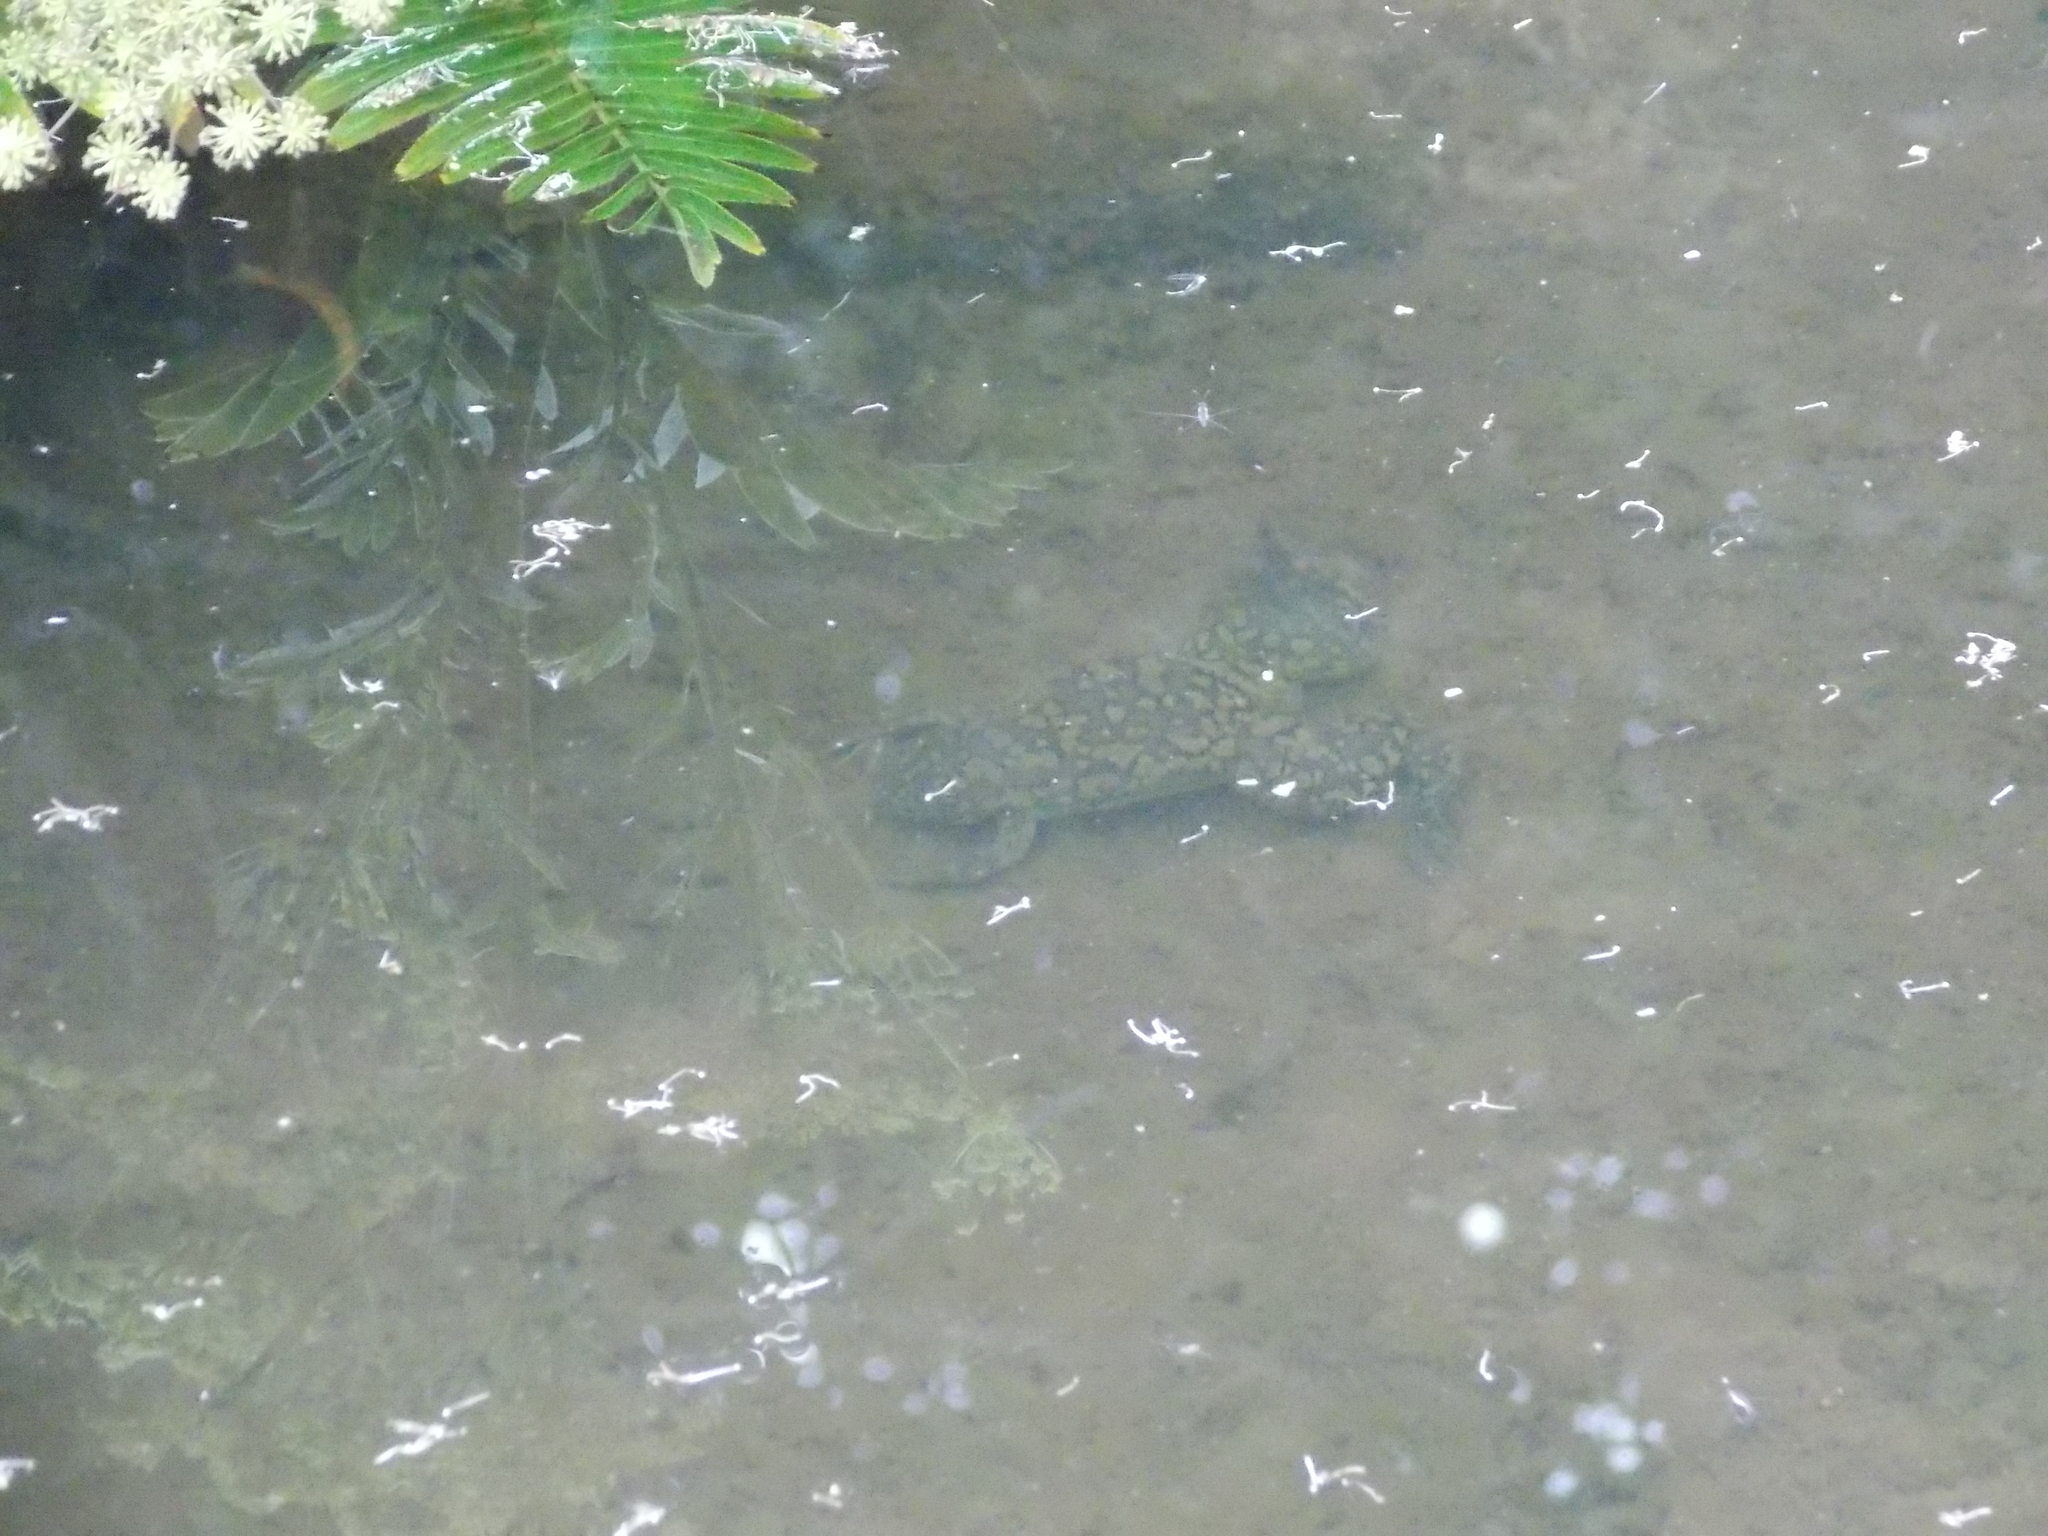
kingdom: Animalia
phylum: Chordata
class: Amphibia
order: Anura
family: Pipidae
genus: Xenopus
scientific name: Xenopus laevis
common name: African clawed frog
